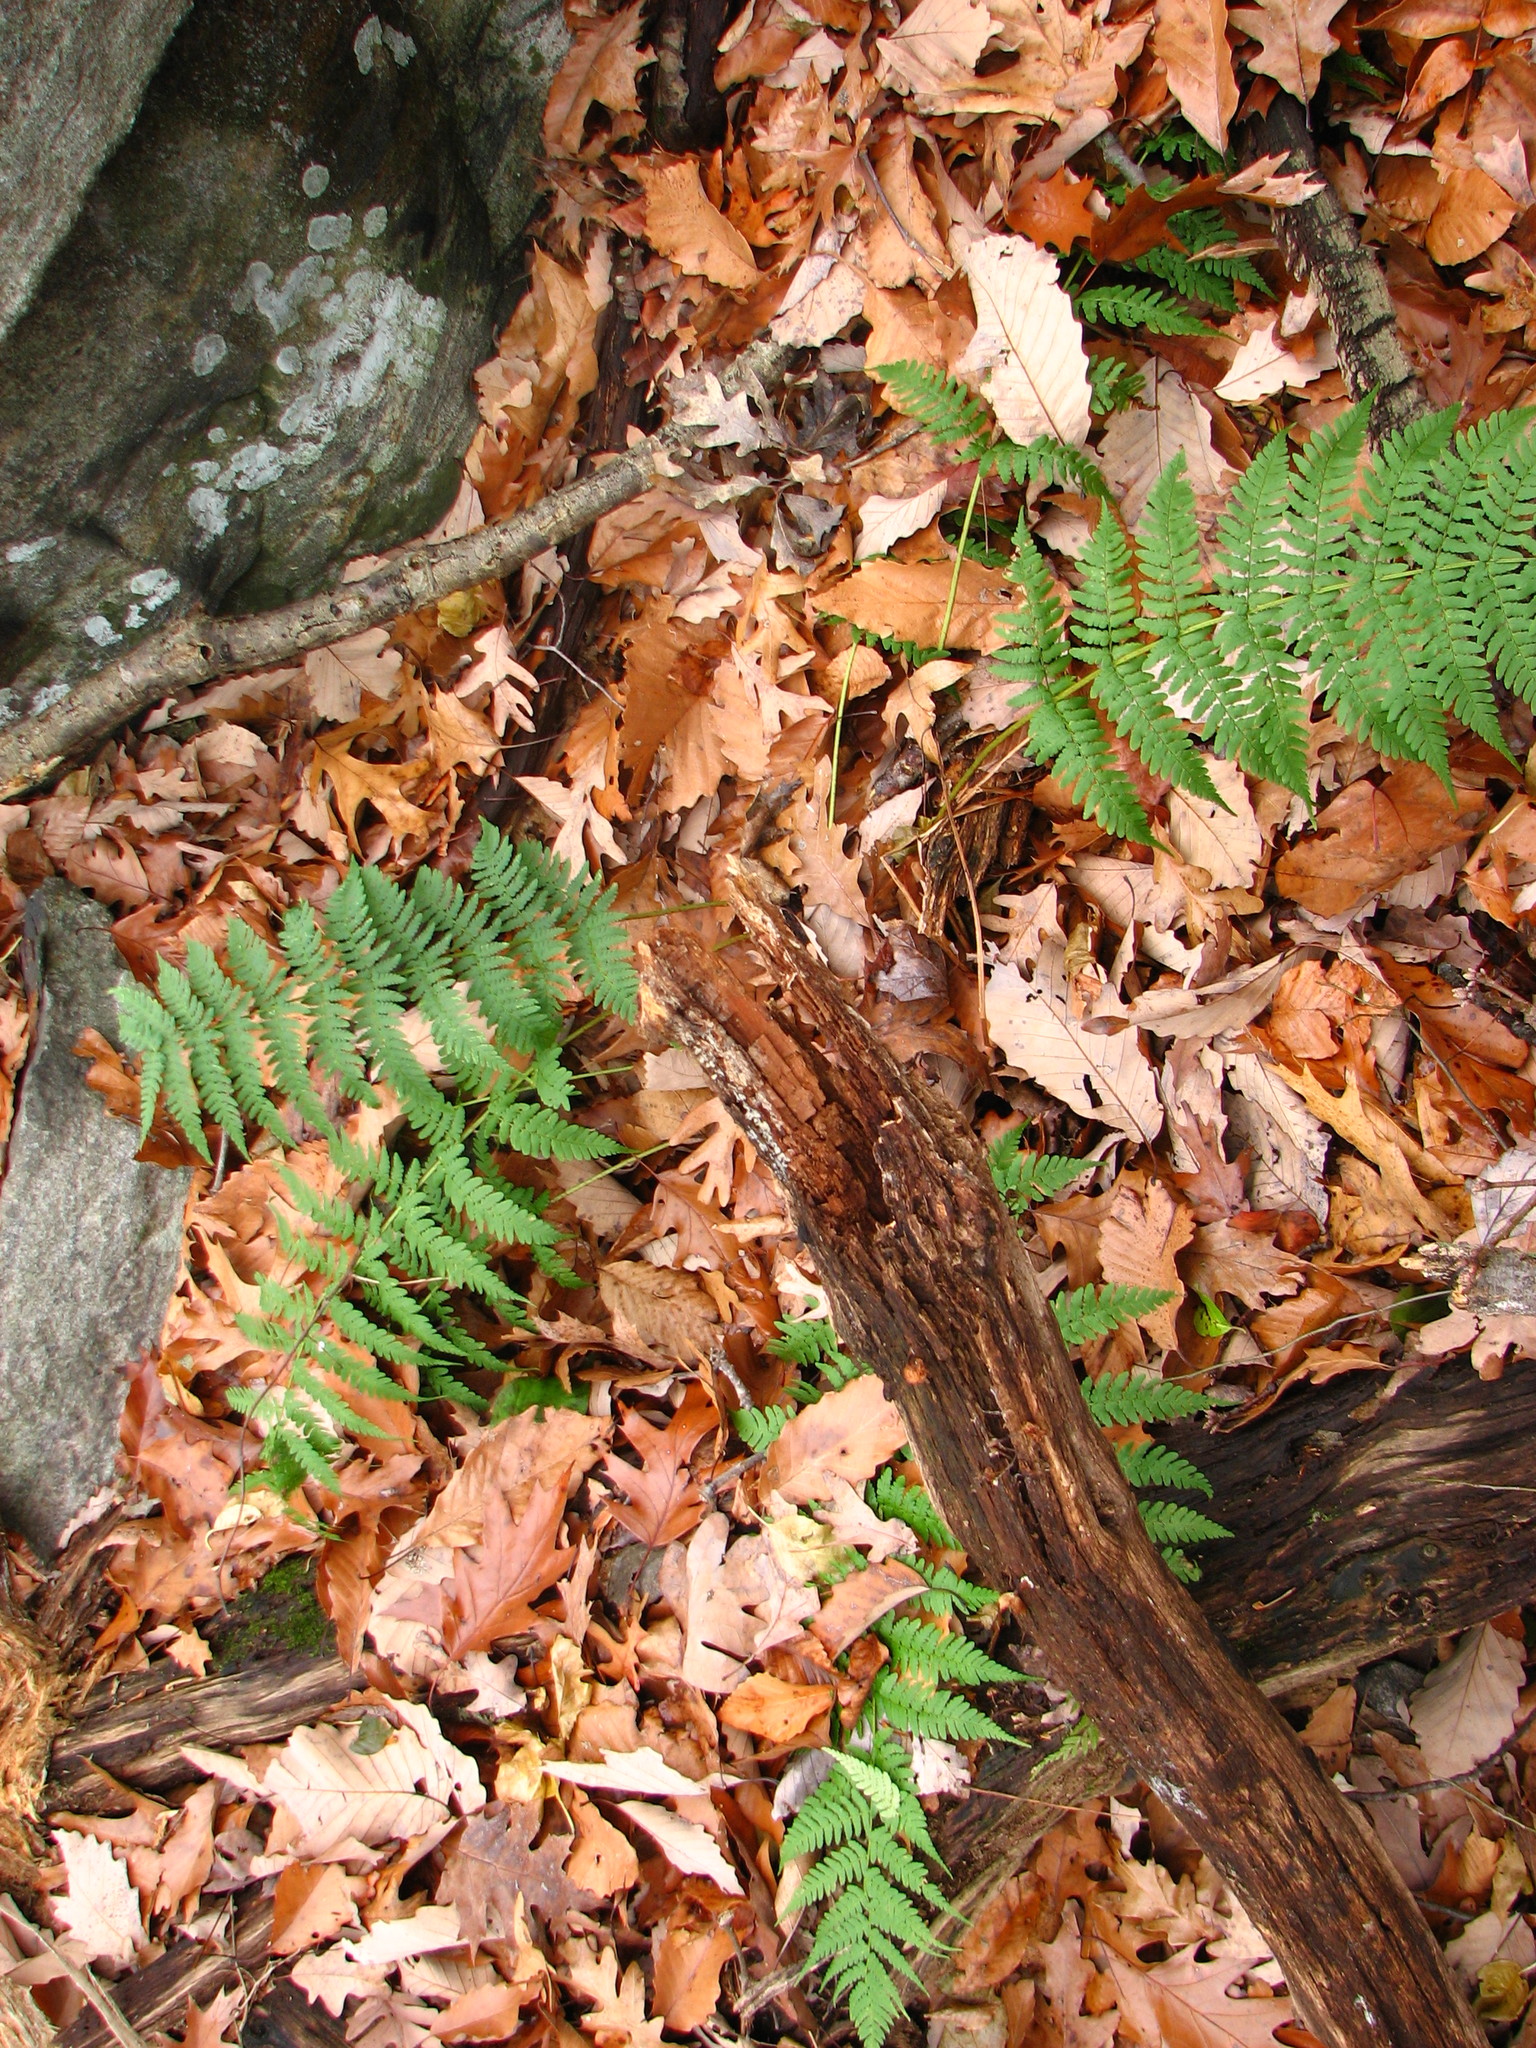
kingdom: Plantae
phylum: Tracheophyta
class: Polypodiopsida
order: Polypodiales
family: Dryopteridaceae
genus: Dryopteris
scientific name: Dryopteris marginalis
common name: Marginal wood fern
